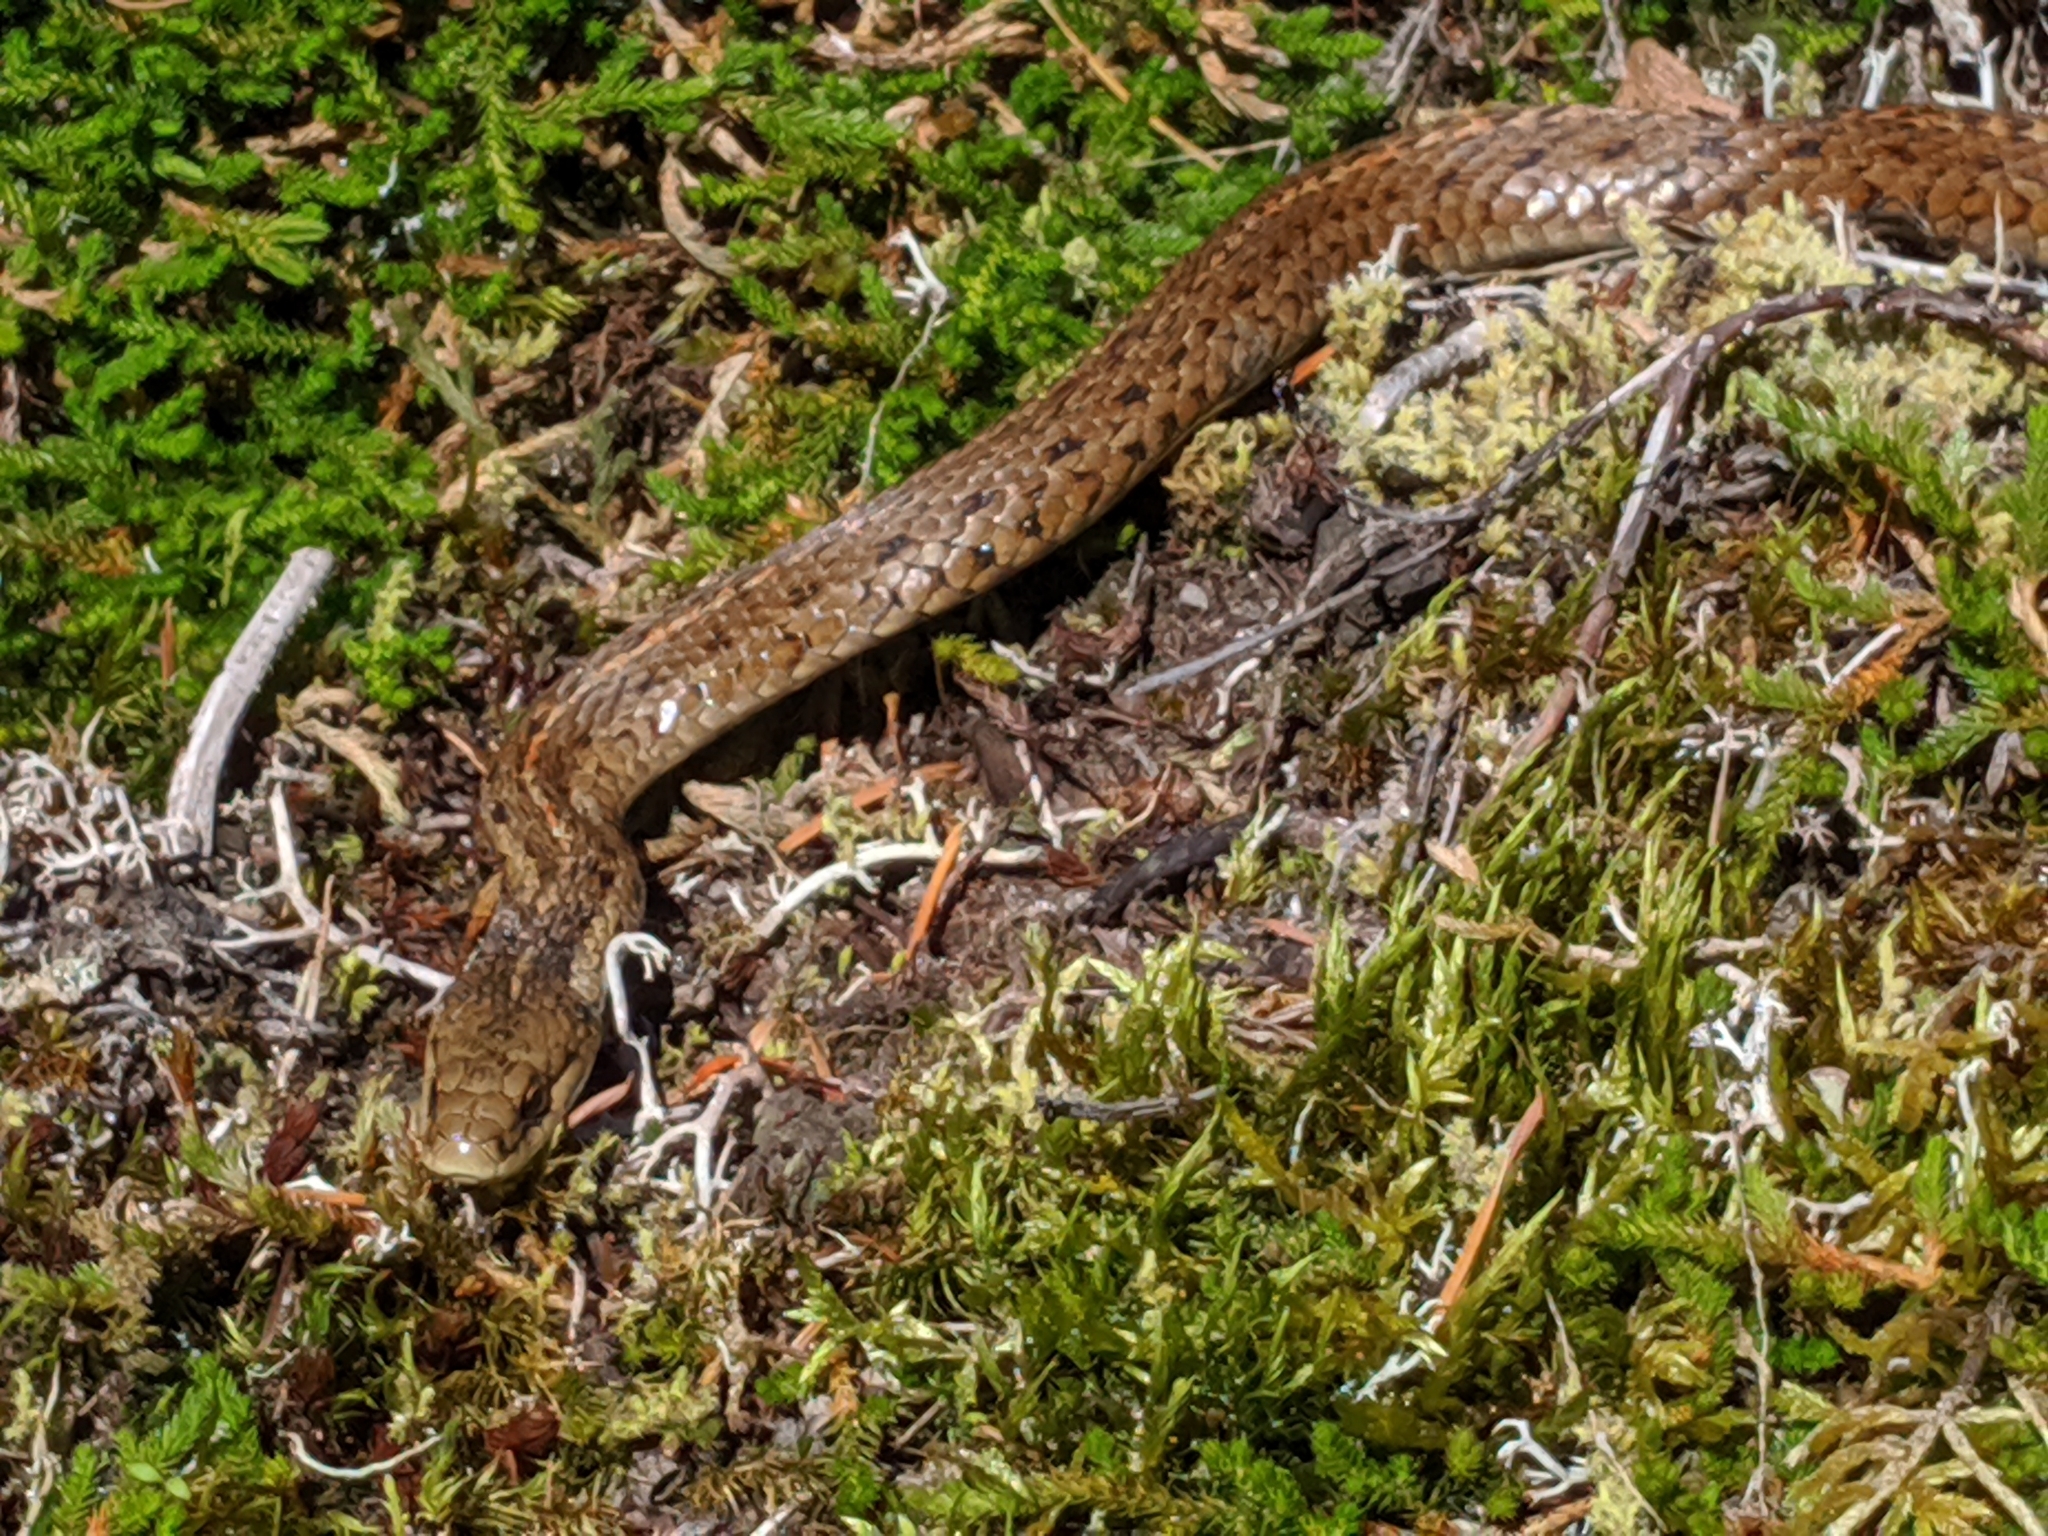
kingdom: Animalia
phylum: Chordata
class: Squamata
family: Colubridae
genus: Thamnophis
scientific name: Thamnophis ordinoides
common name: Northwestern garter snake
